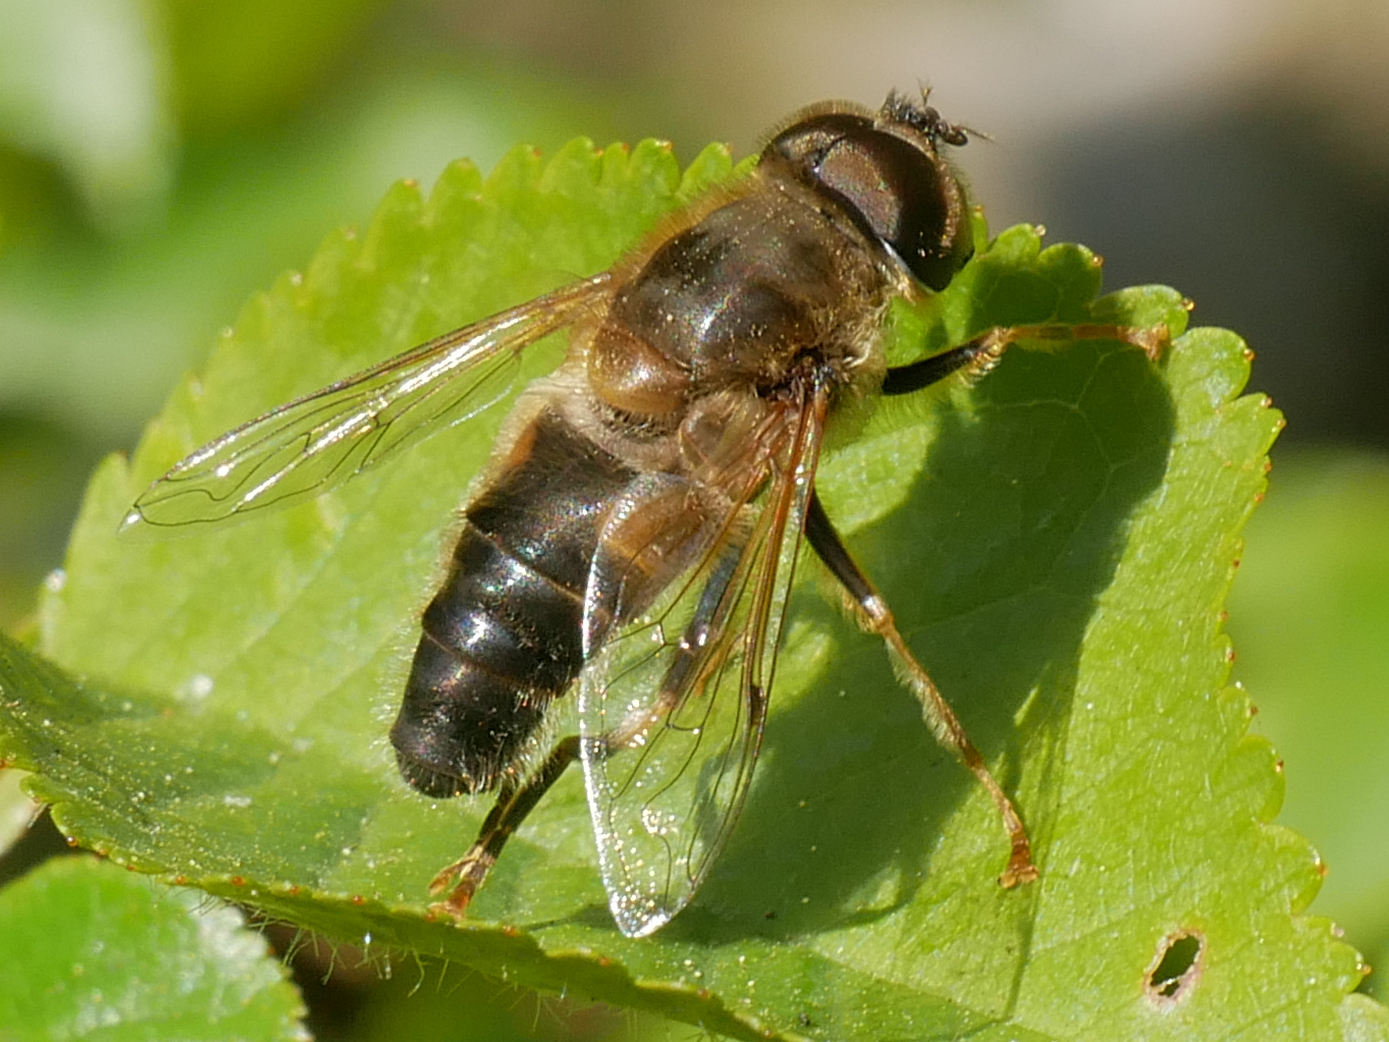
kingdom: Animalia
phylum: Arthropoda
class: Insecta
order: Diptera
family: Syrphidae
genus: Eristalis
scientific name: Eristalis pertinax
